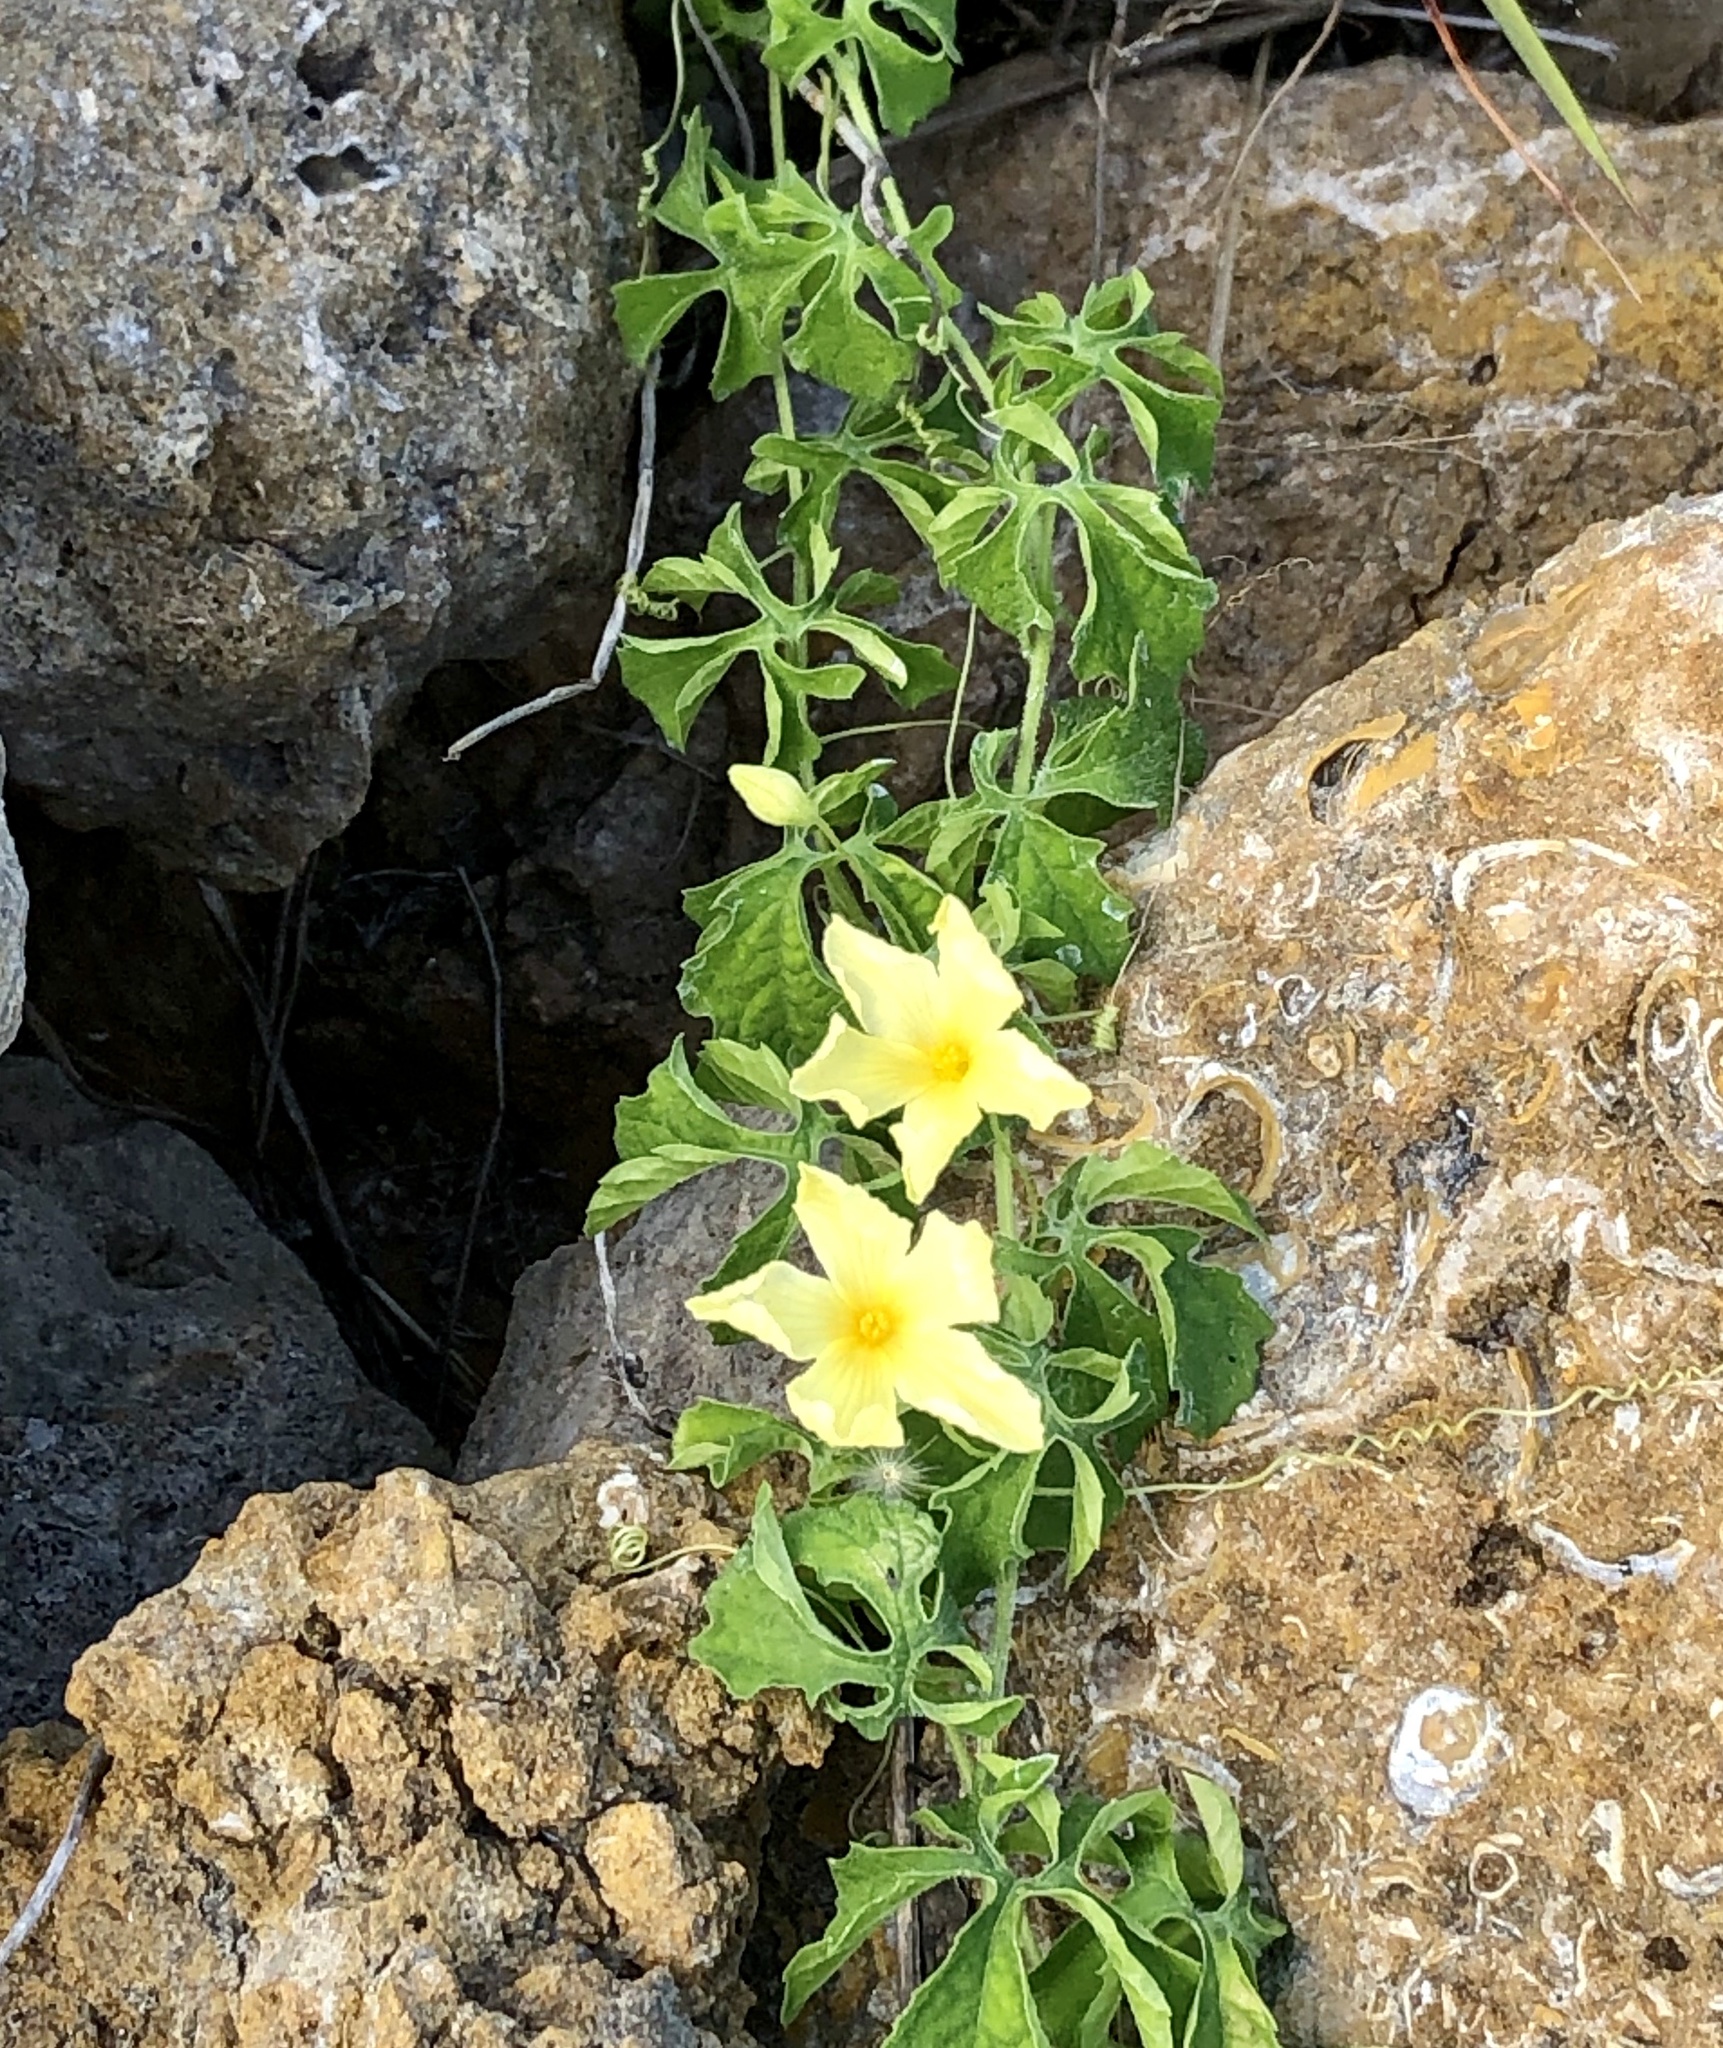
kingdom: Plantae
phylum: Tracheophyta
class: Magnoliopsida
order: Cucurbitales
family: Cucurbitaceae
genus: Momordica
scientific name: Momordica charantia
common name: Balsampear
